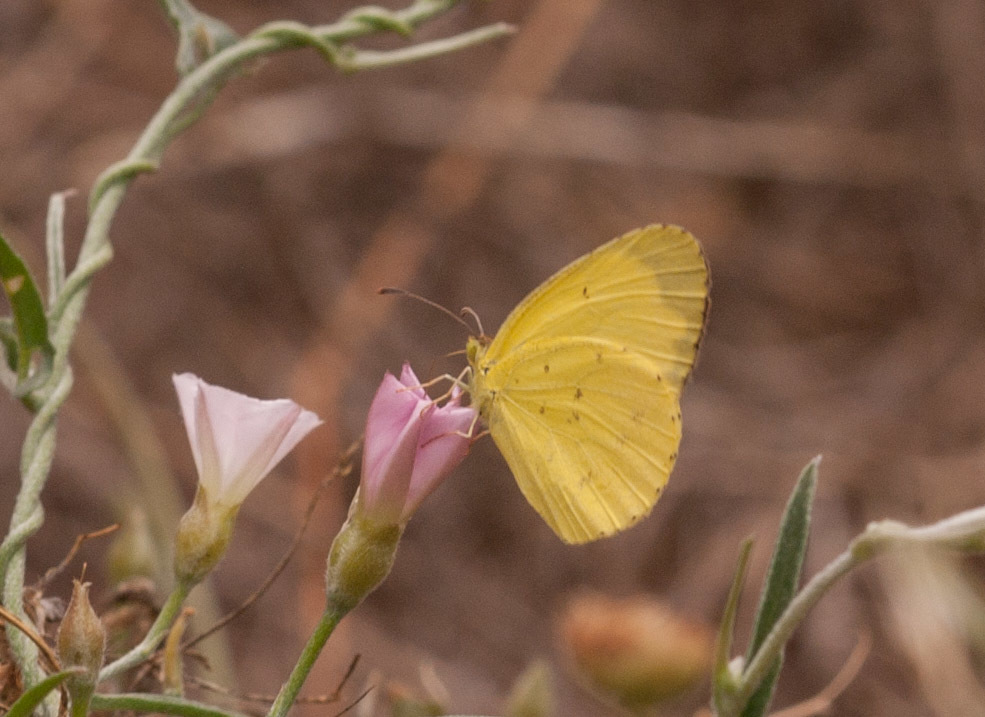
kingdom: Animalia
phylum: Arthropoda
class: Insecta
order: Lepidoptera
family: Pieridae
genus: Eurema
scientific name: Eurema smilax
